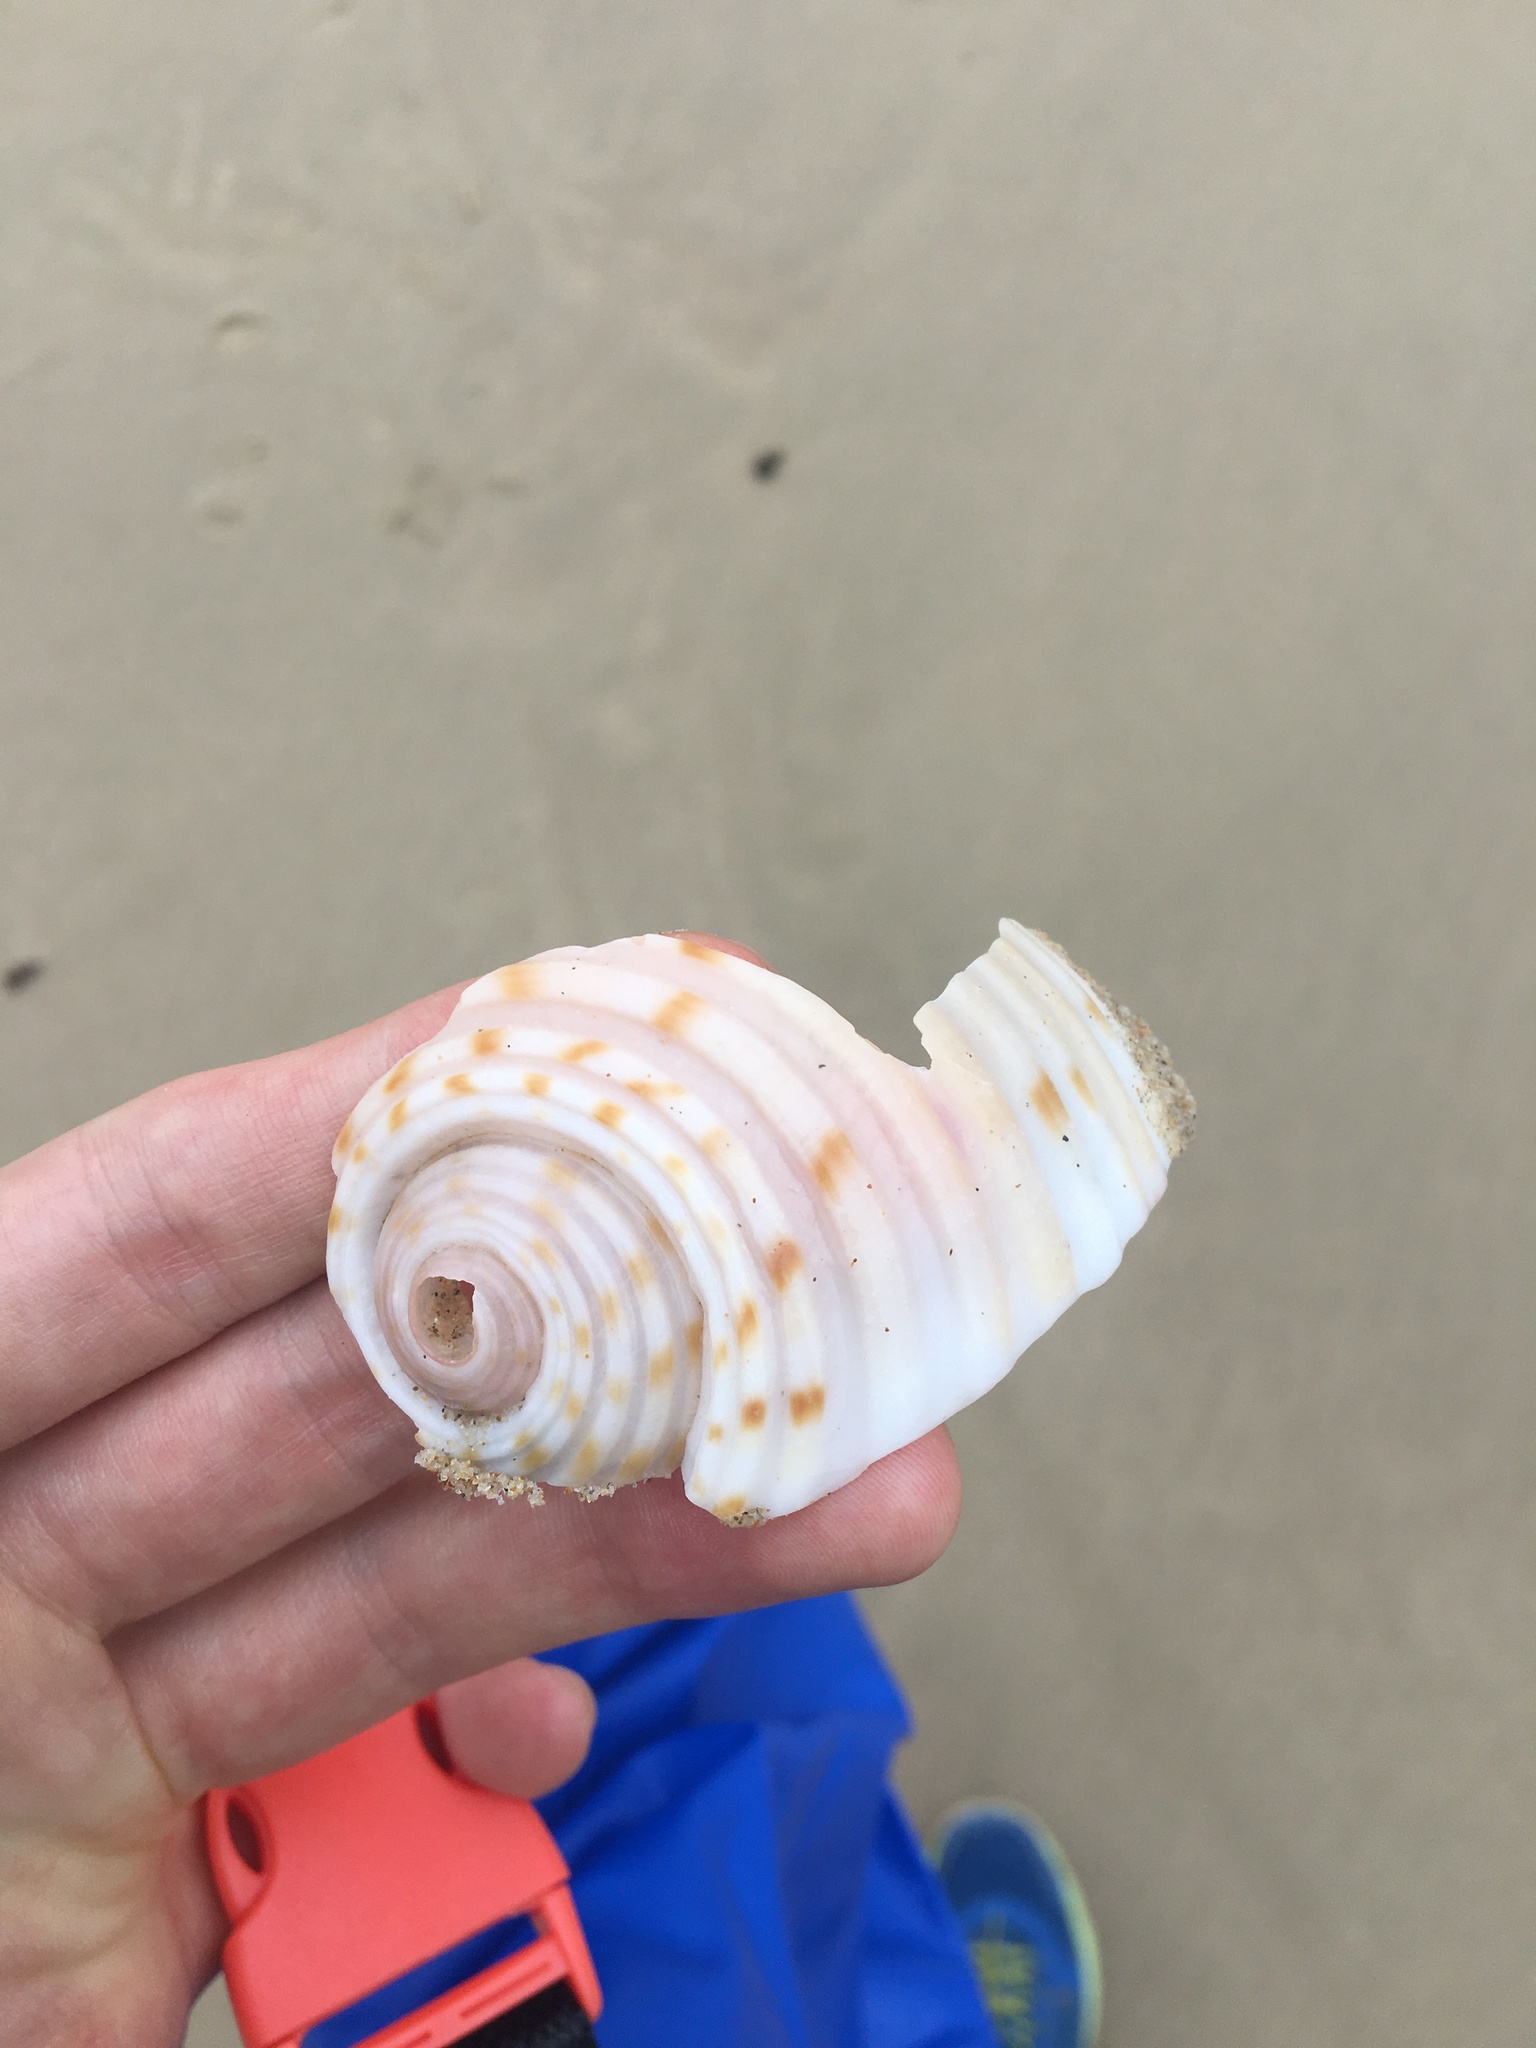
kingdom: Animalia
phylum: Mollusca
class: Gastropoda
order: Littorinimorpha
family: Tonnidae
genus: Tonna
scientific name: Tonna tankervillii
